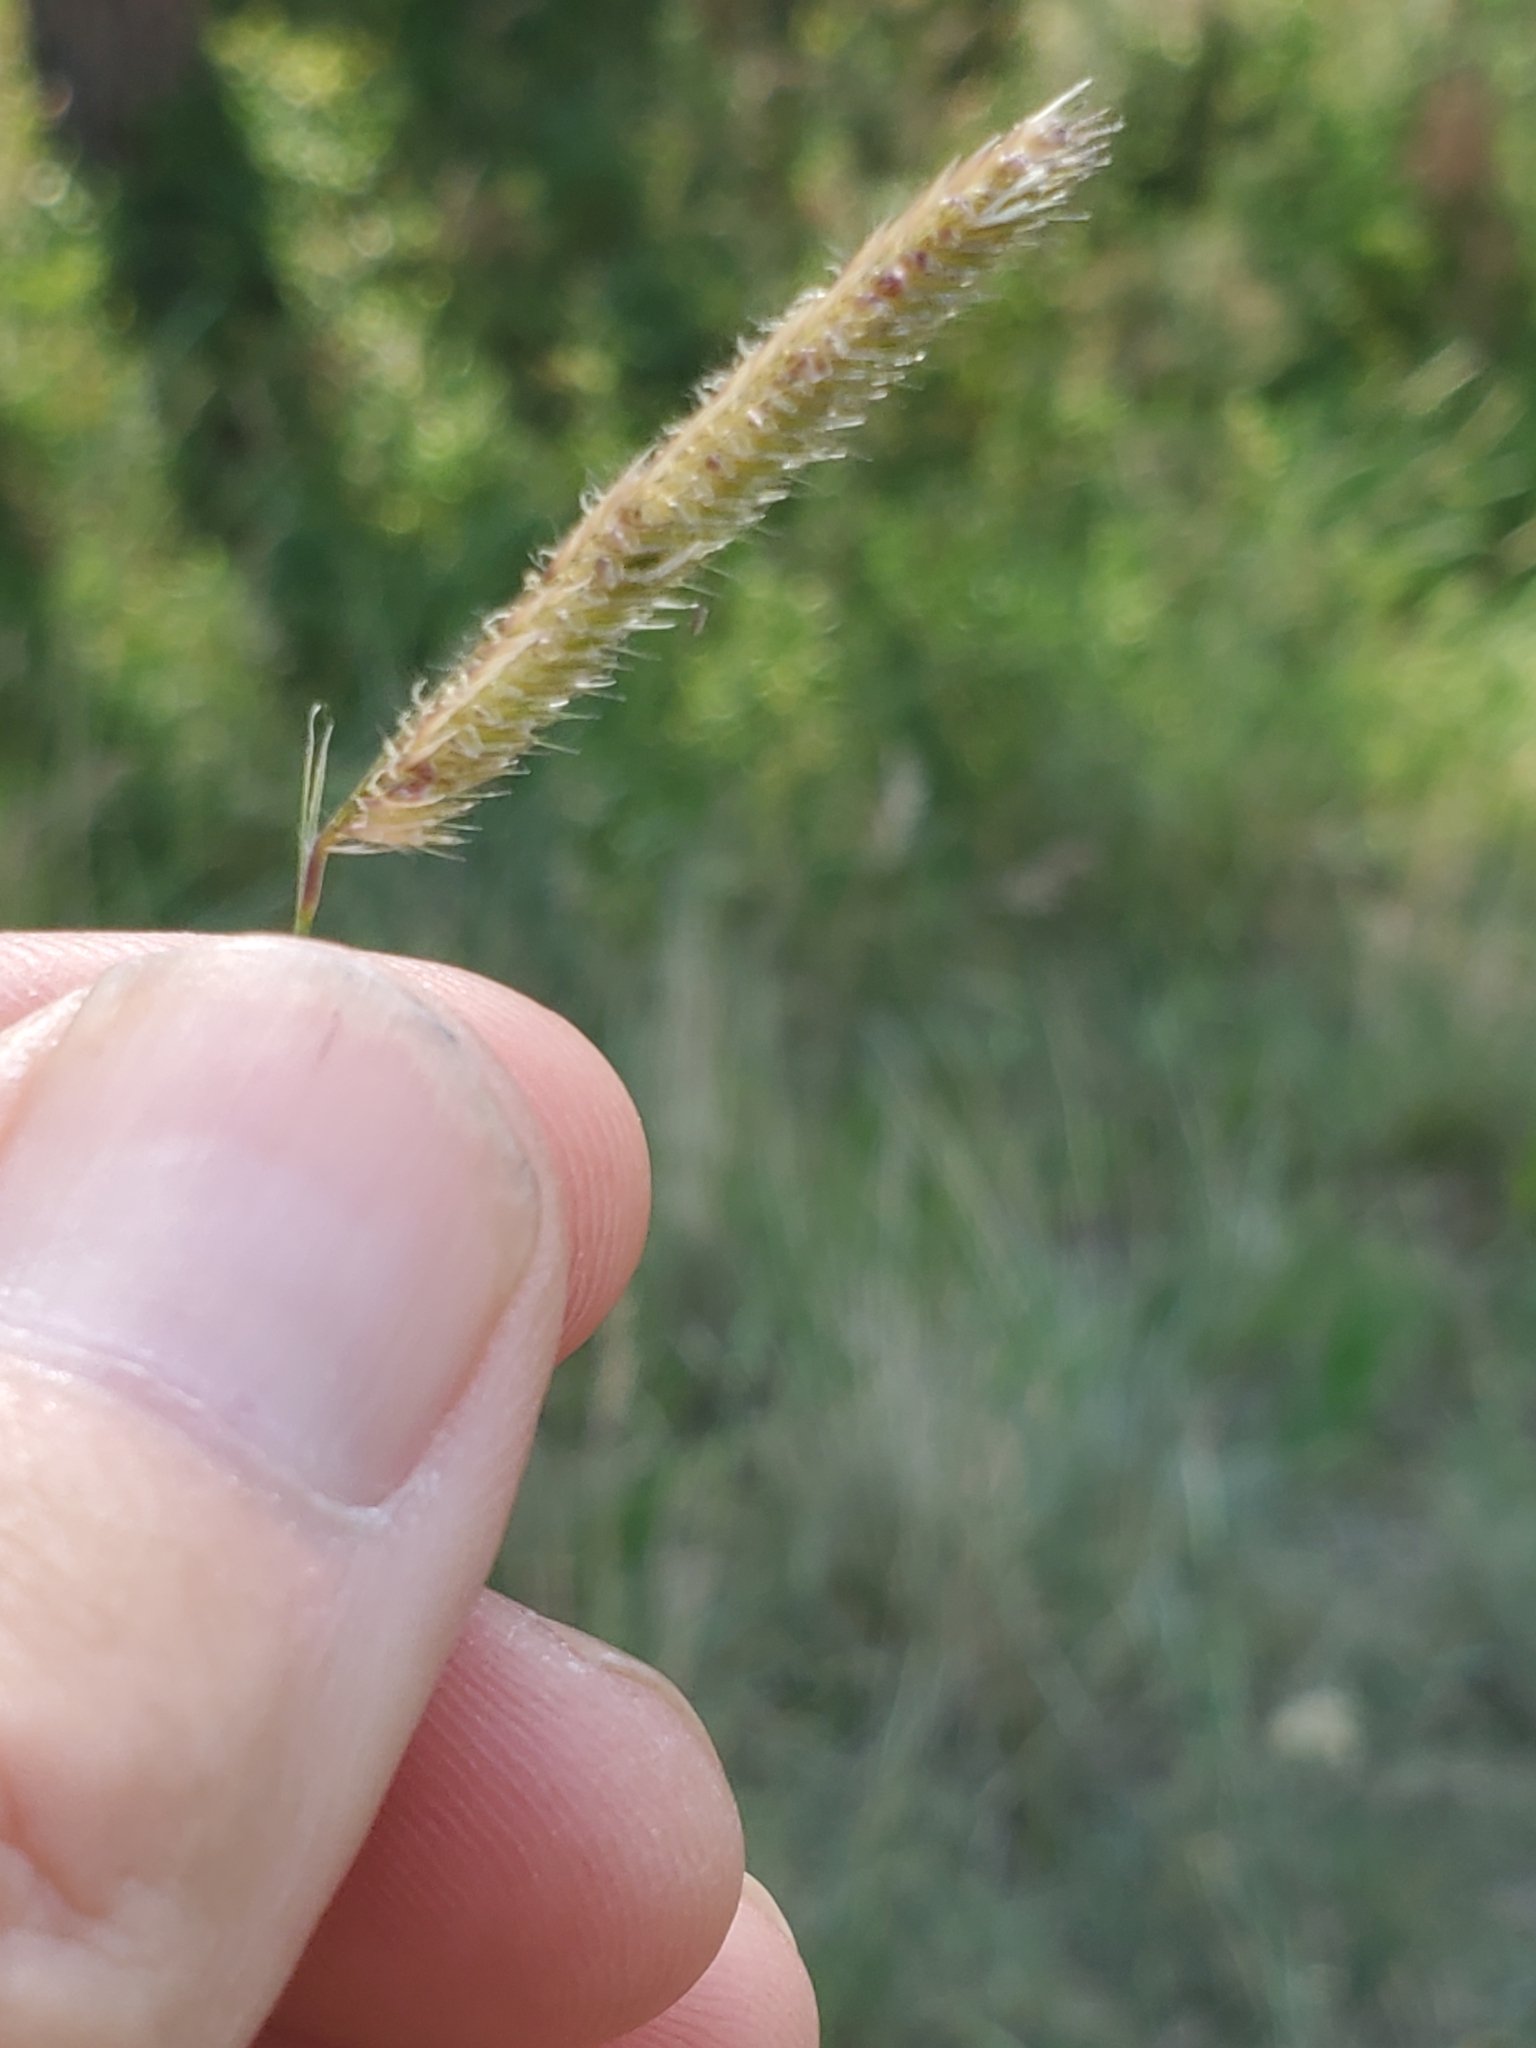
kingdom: Plantae
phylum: Tracheophyta
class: Liliopsida
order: Poales
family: Poaceae
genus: Bouteloua
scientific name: Bouteloua gracilis
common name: Blue grama
